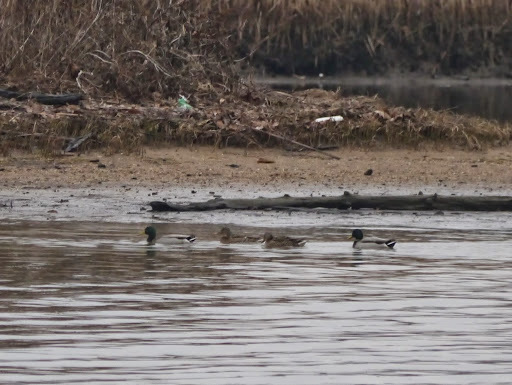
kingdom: Animalia
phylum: Chordata
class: Aves
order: Anseriformes
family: Anatidae
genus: Anas
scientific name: Anas platyrhynchos
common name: Mallard
